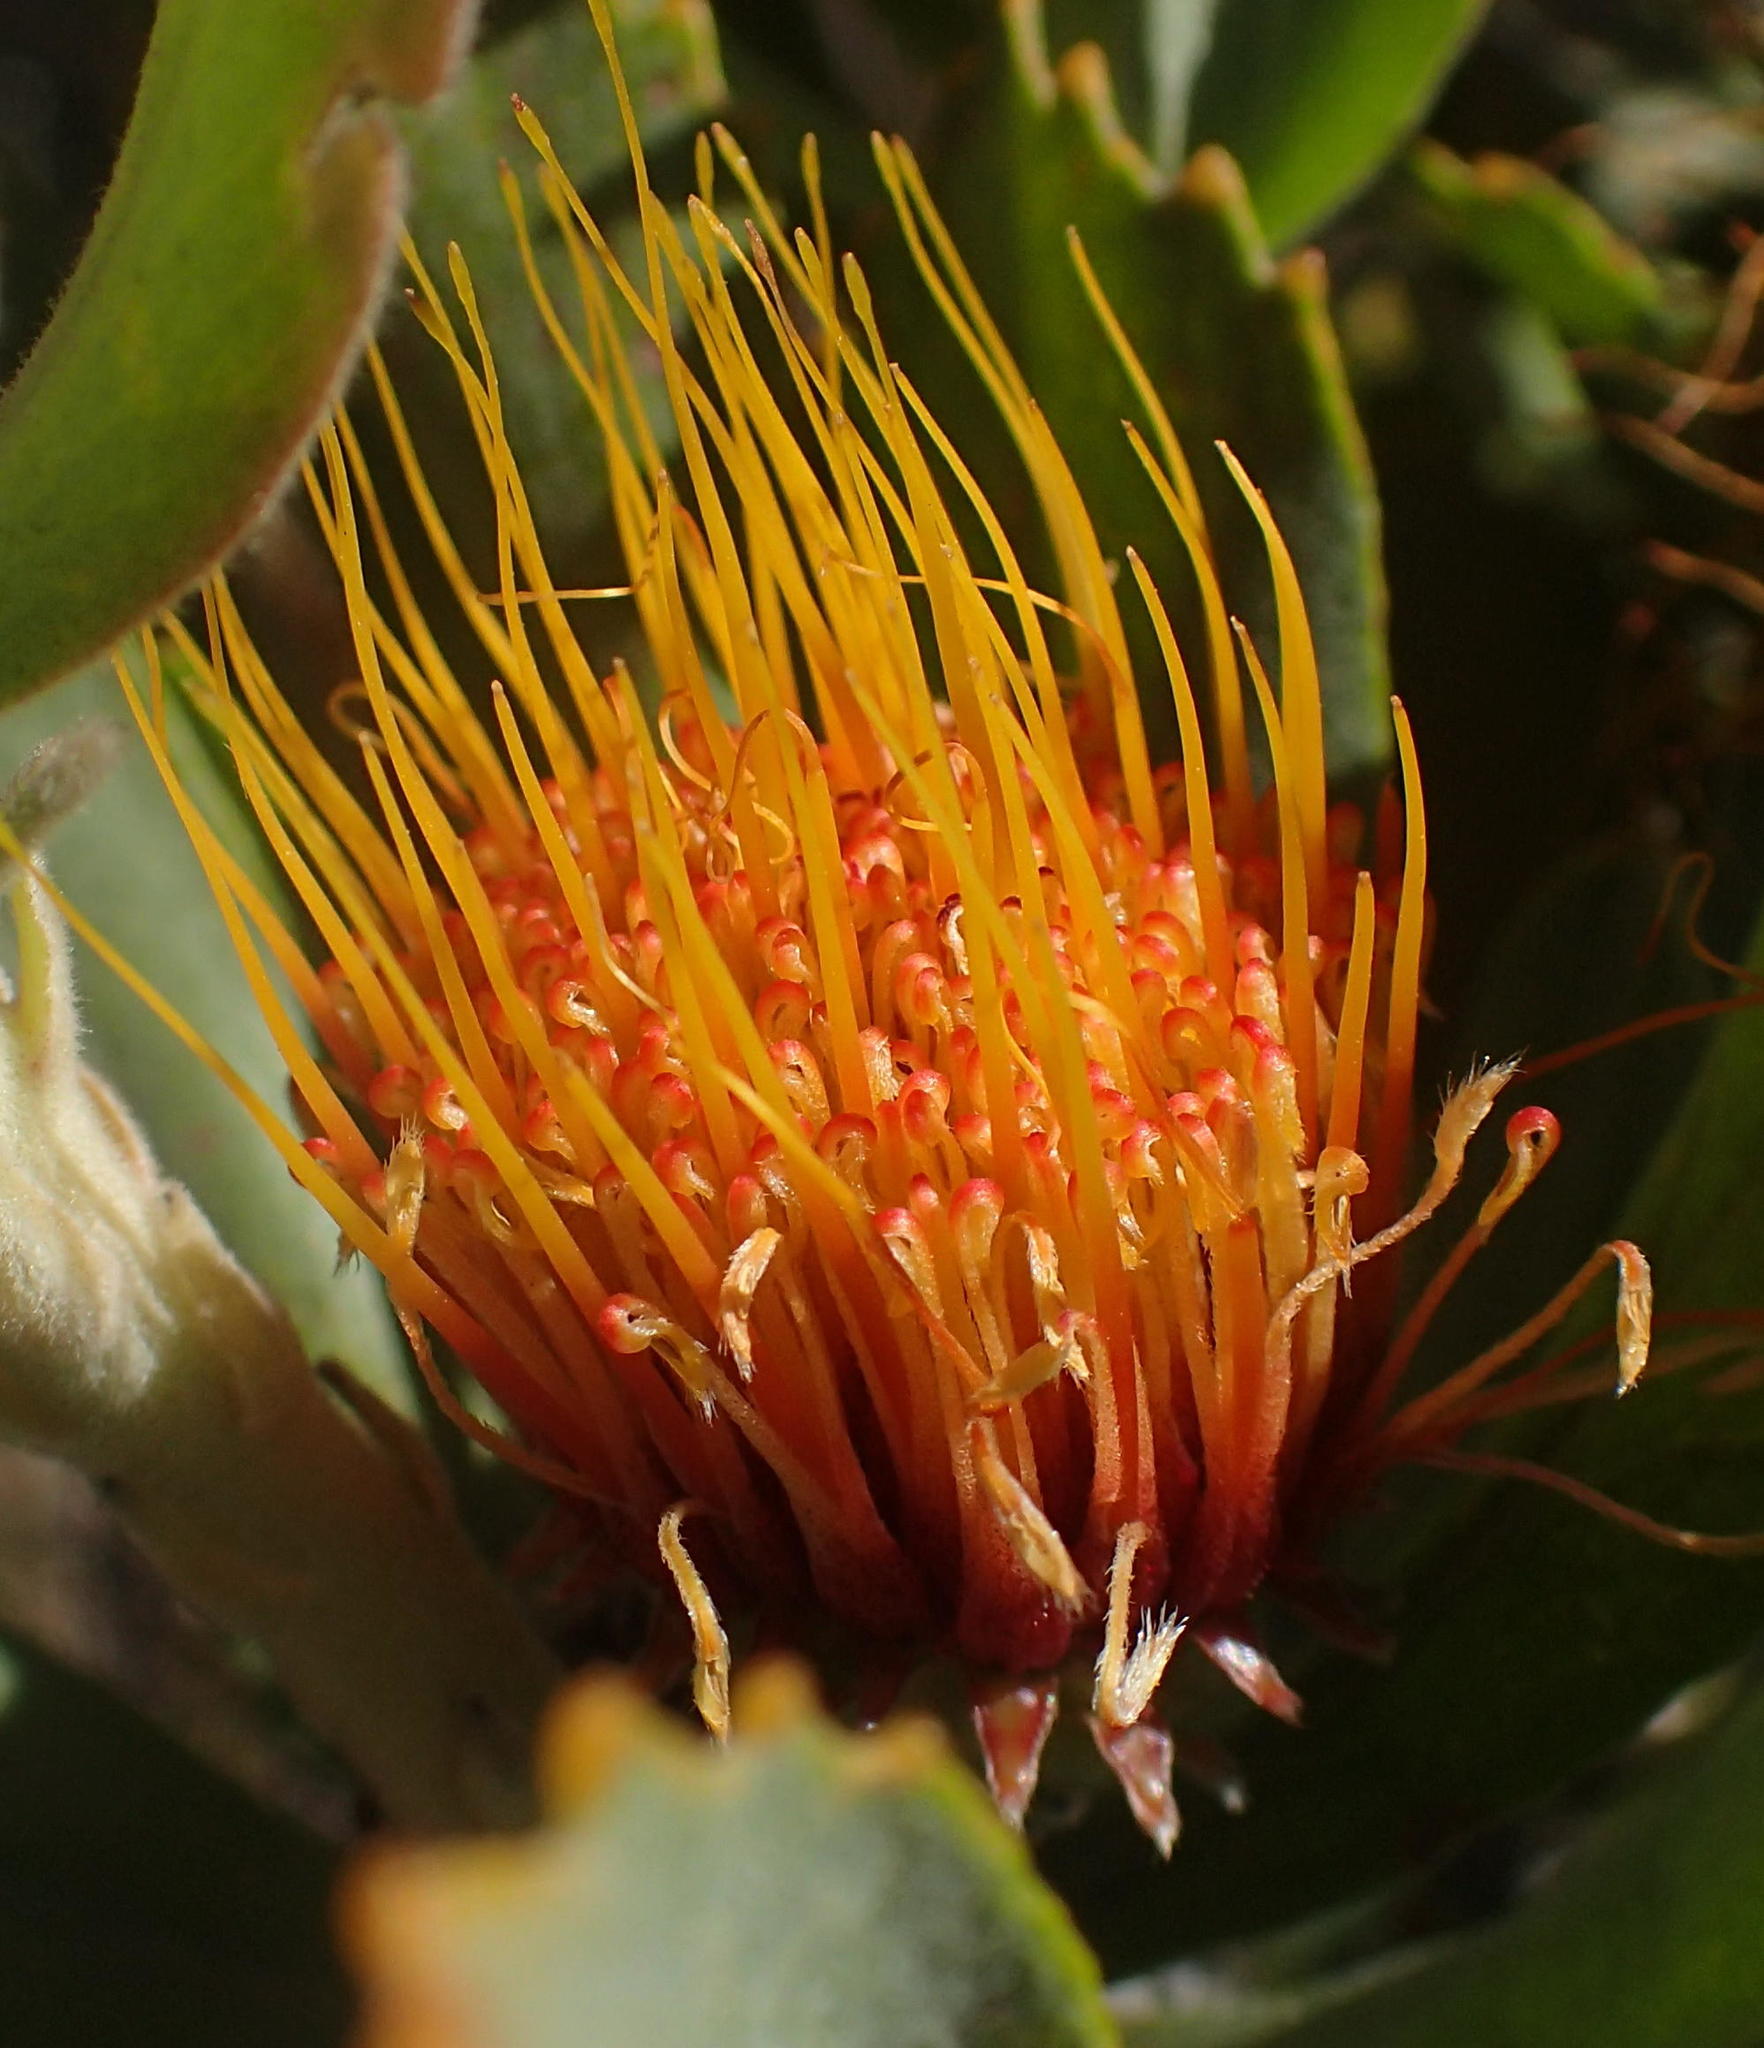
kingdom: Plantae
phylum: Tracheophyta
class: Magnoliopsida
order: Proteales
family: Proteaceae
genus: Leucospermum
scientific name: Leucospermum mundii
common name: Langeberg pincushion
